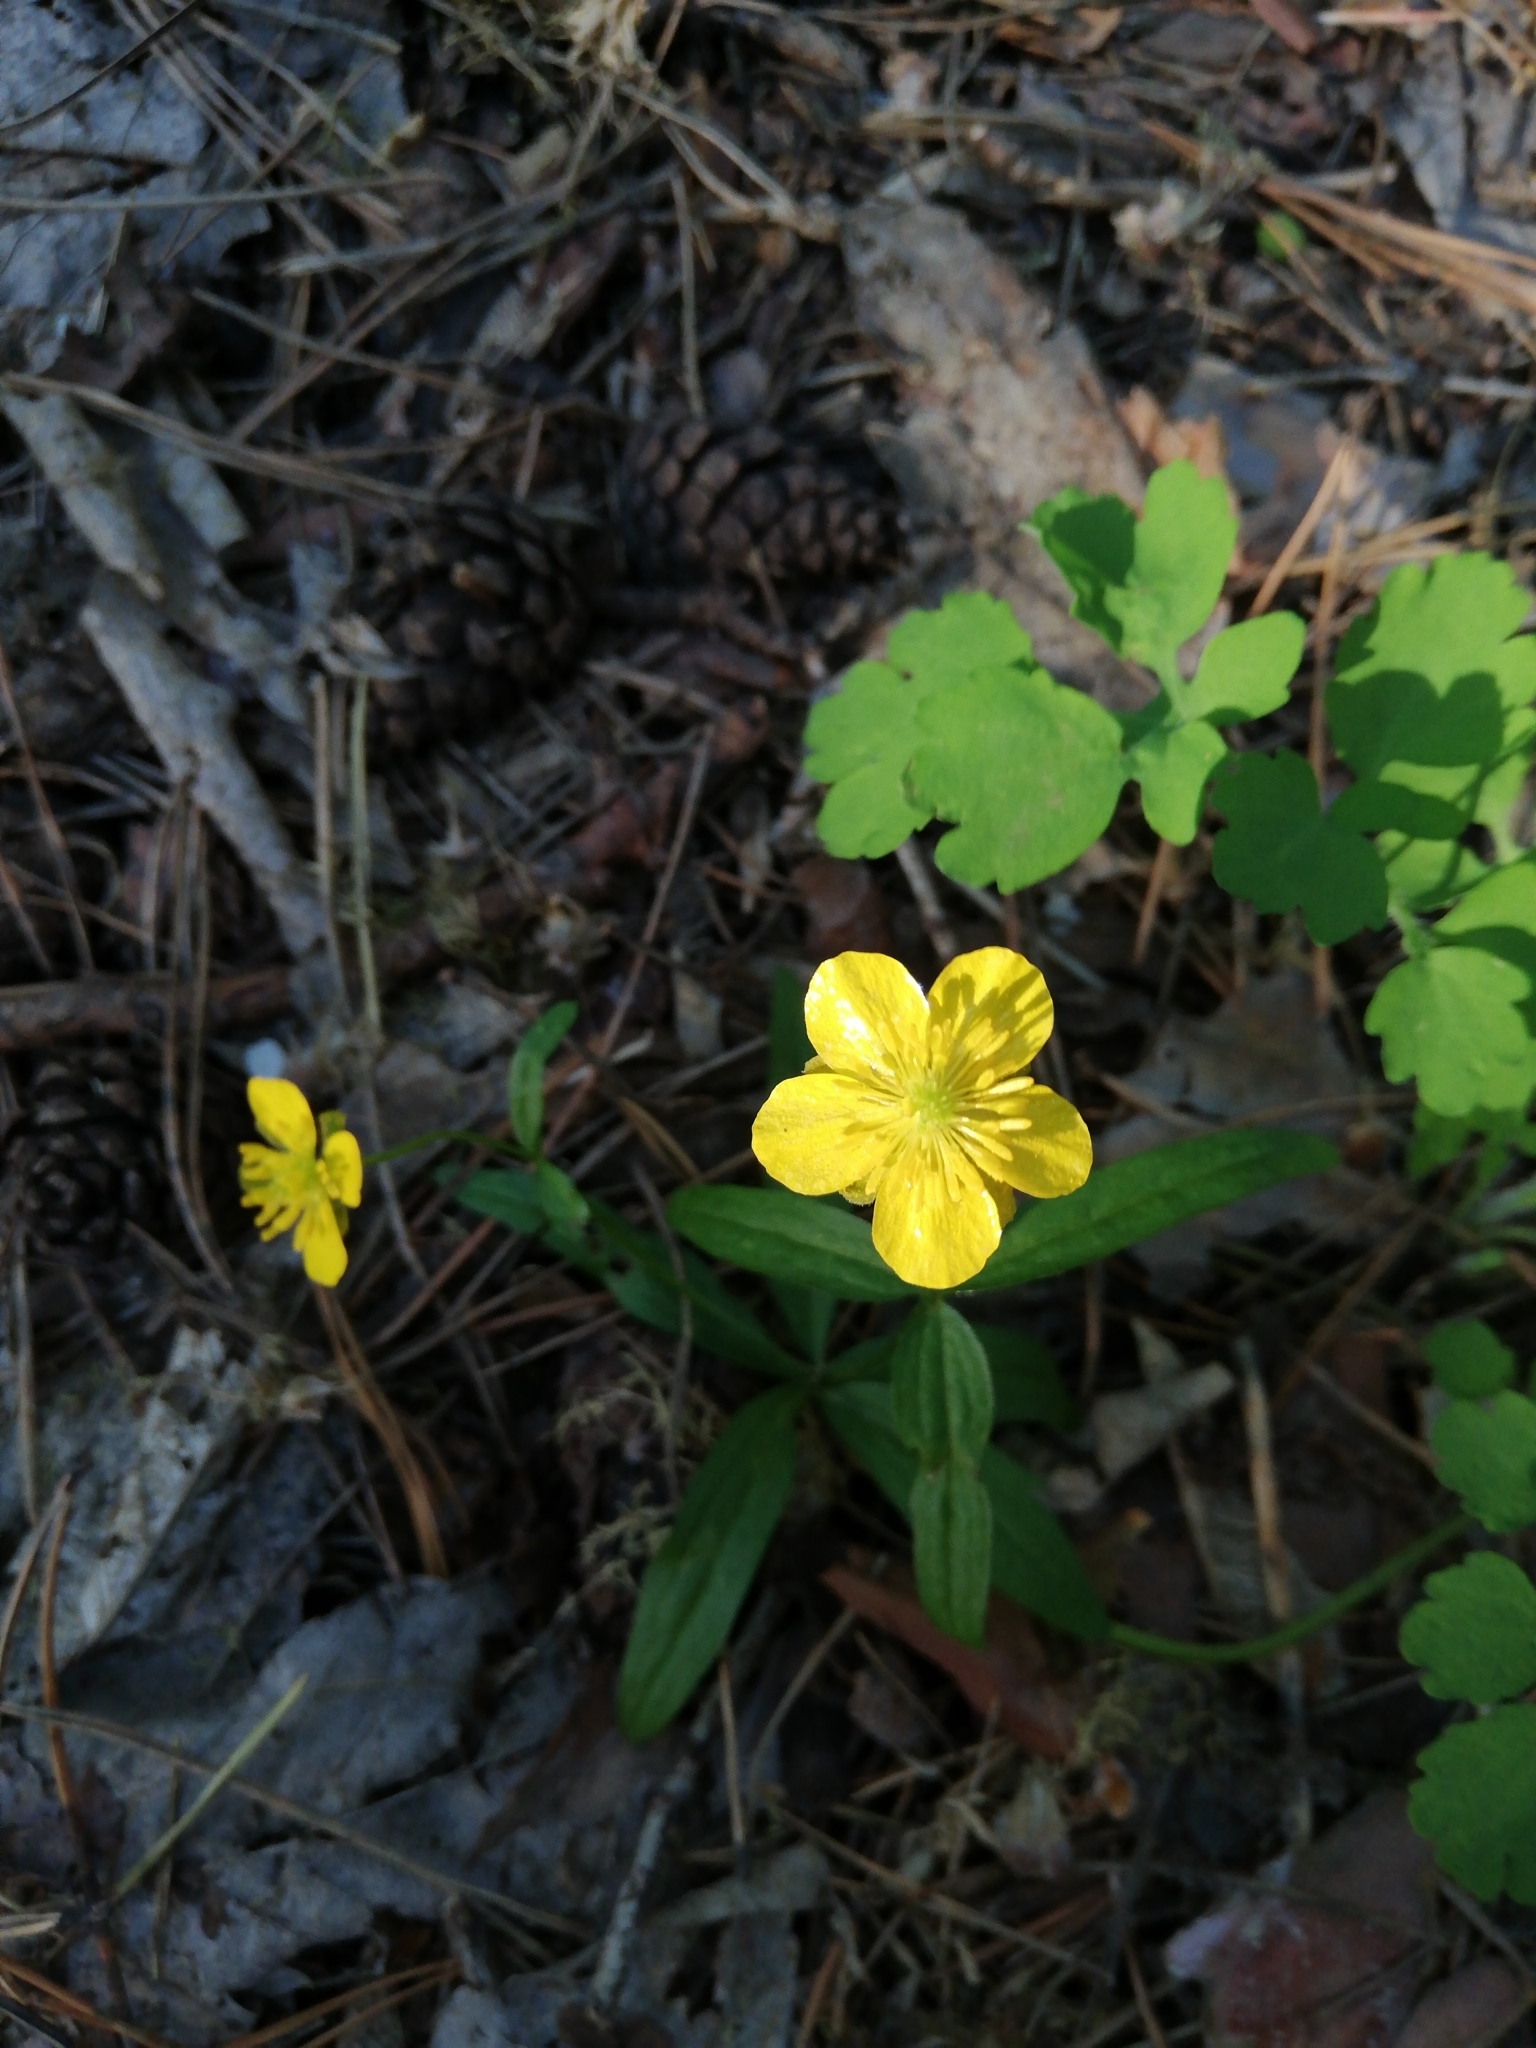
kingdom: Plantae
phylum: Tracheophyta
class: Magnoliopsida
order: Ranunculales
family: Ranunculaceae
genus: Ranunculus
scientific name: Ranunculus monophyllus
